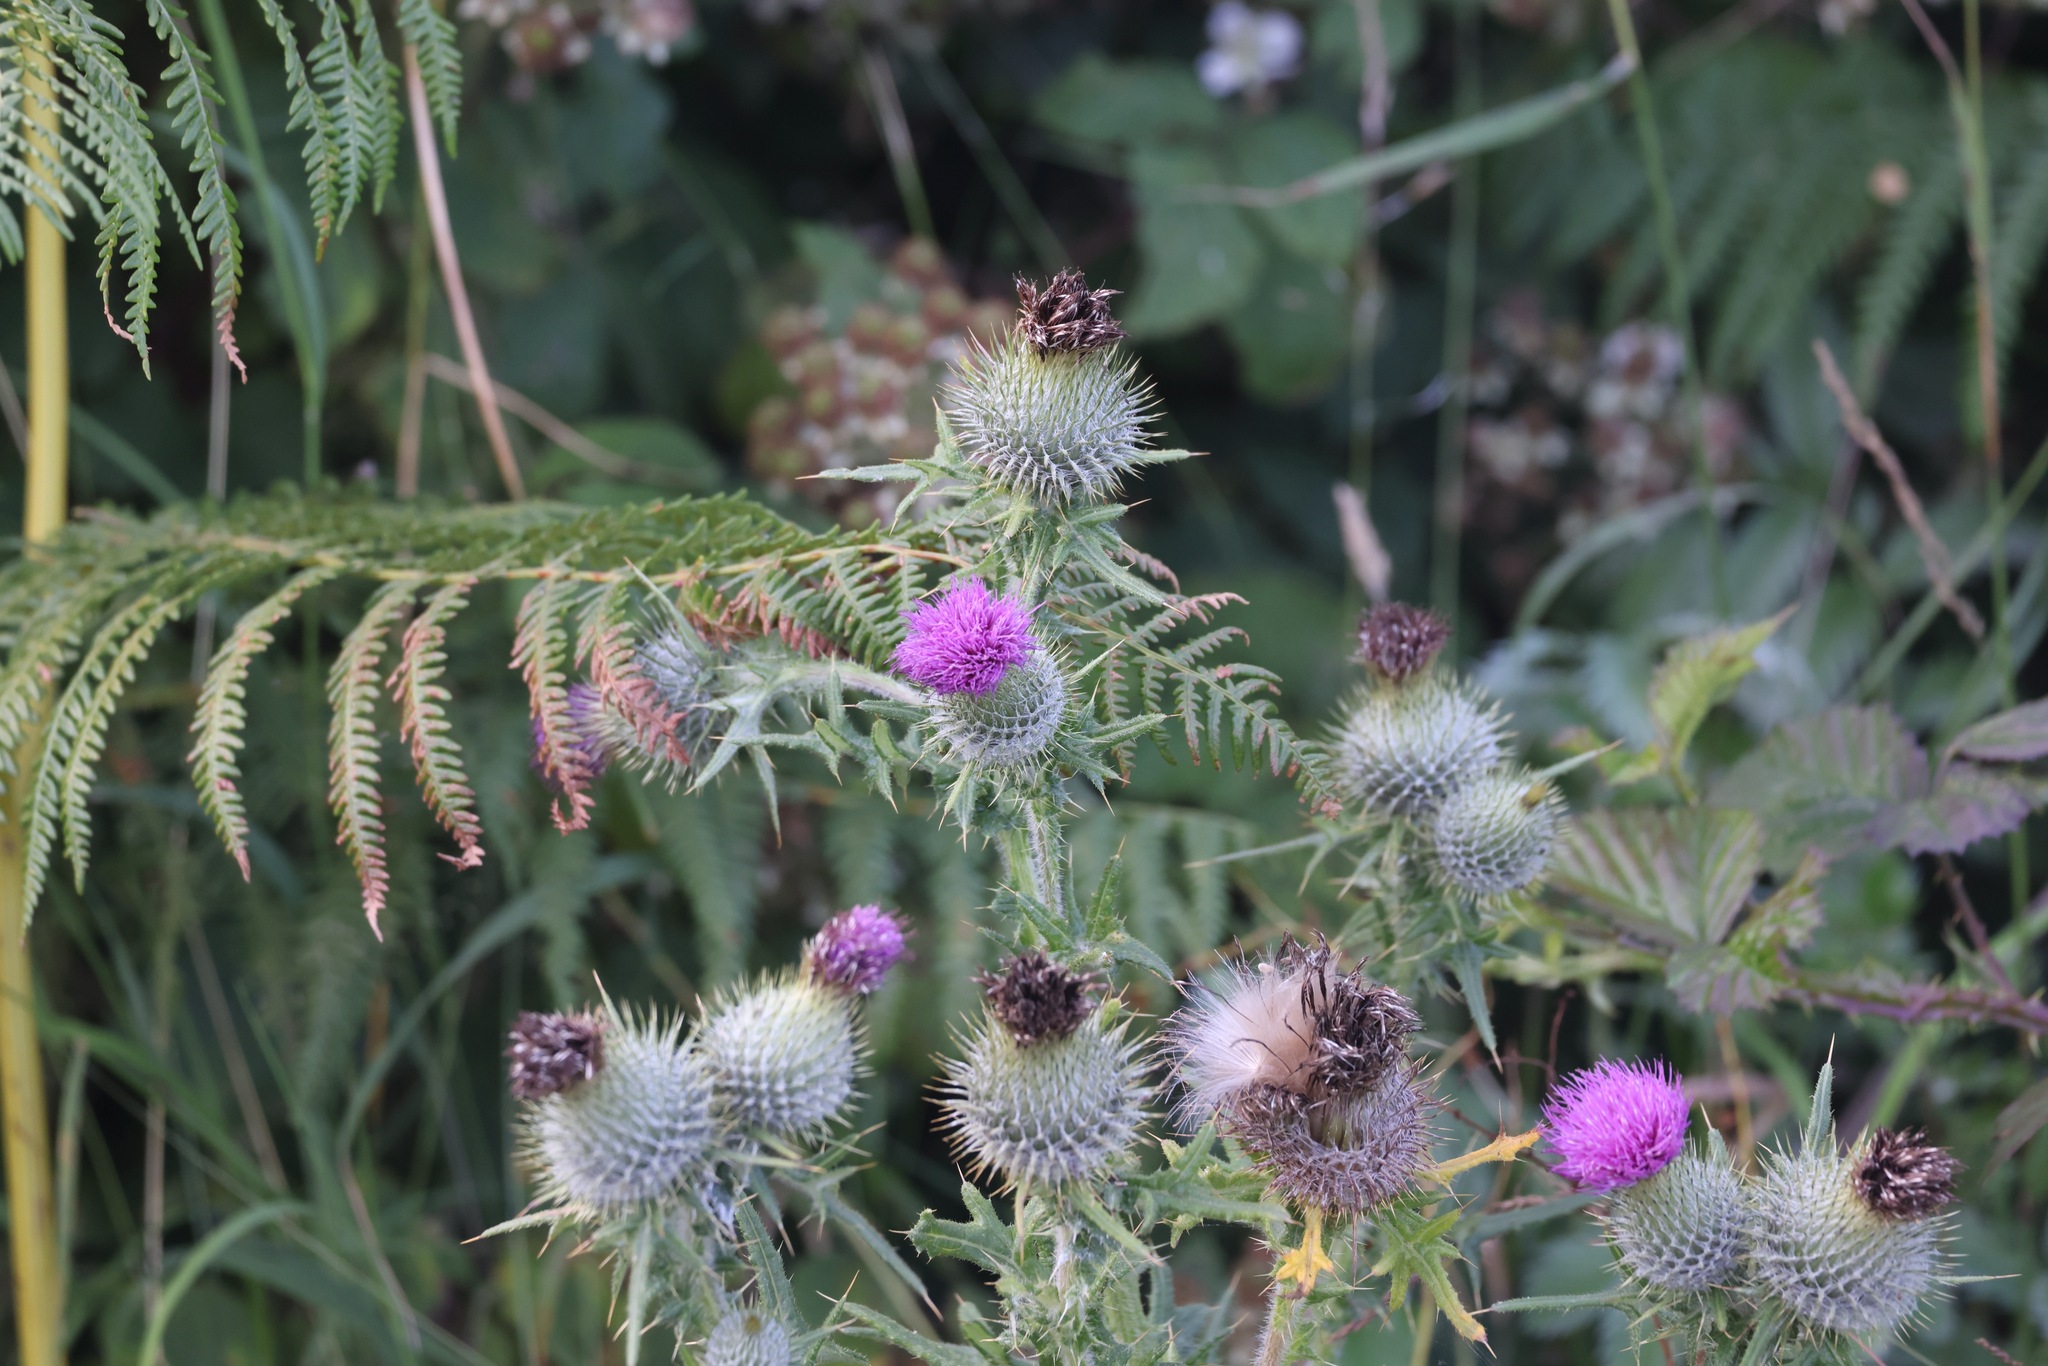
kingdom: Plantae
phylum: Tracheophyta
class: Magnoliopsida
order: Asterales
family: Asteraceae
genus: Cirsium
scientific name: Cirsium vulgare
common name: Bull thistle
